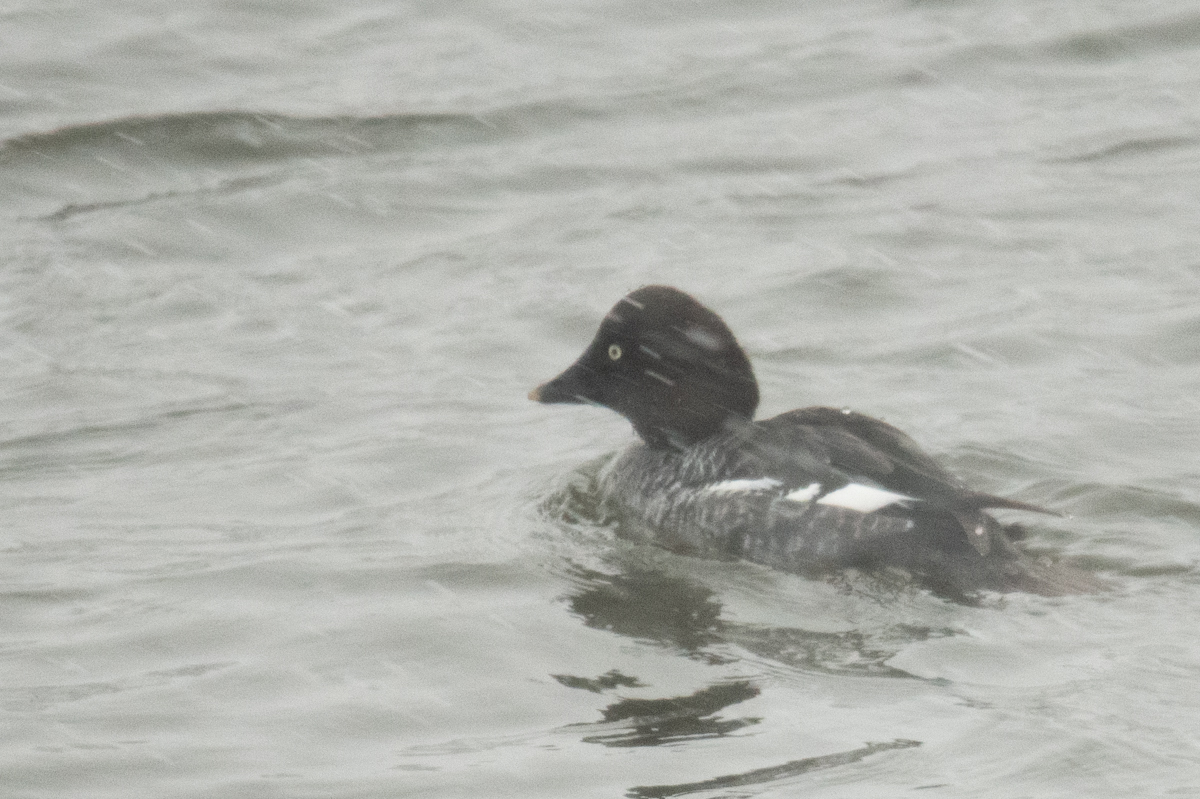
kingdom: Animalia
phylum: Chordata
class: Aves
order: Anseriformes
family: Anatidae
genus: Bucephala
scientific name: Bucephala clangula
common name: Common goldeneye
